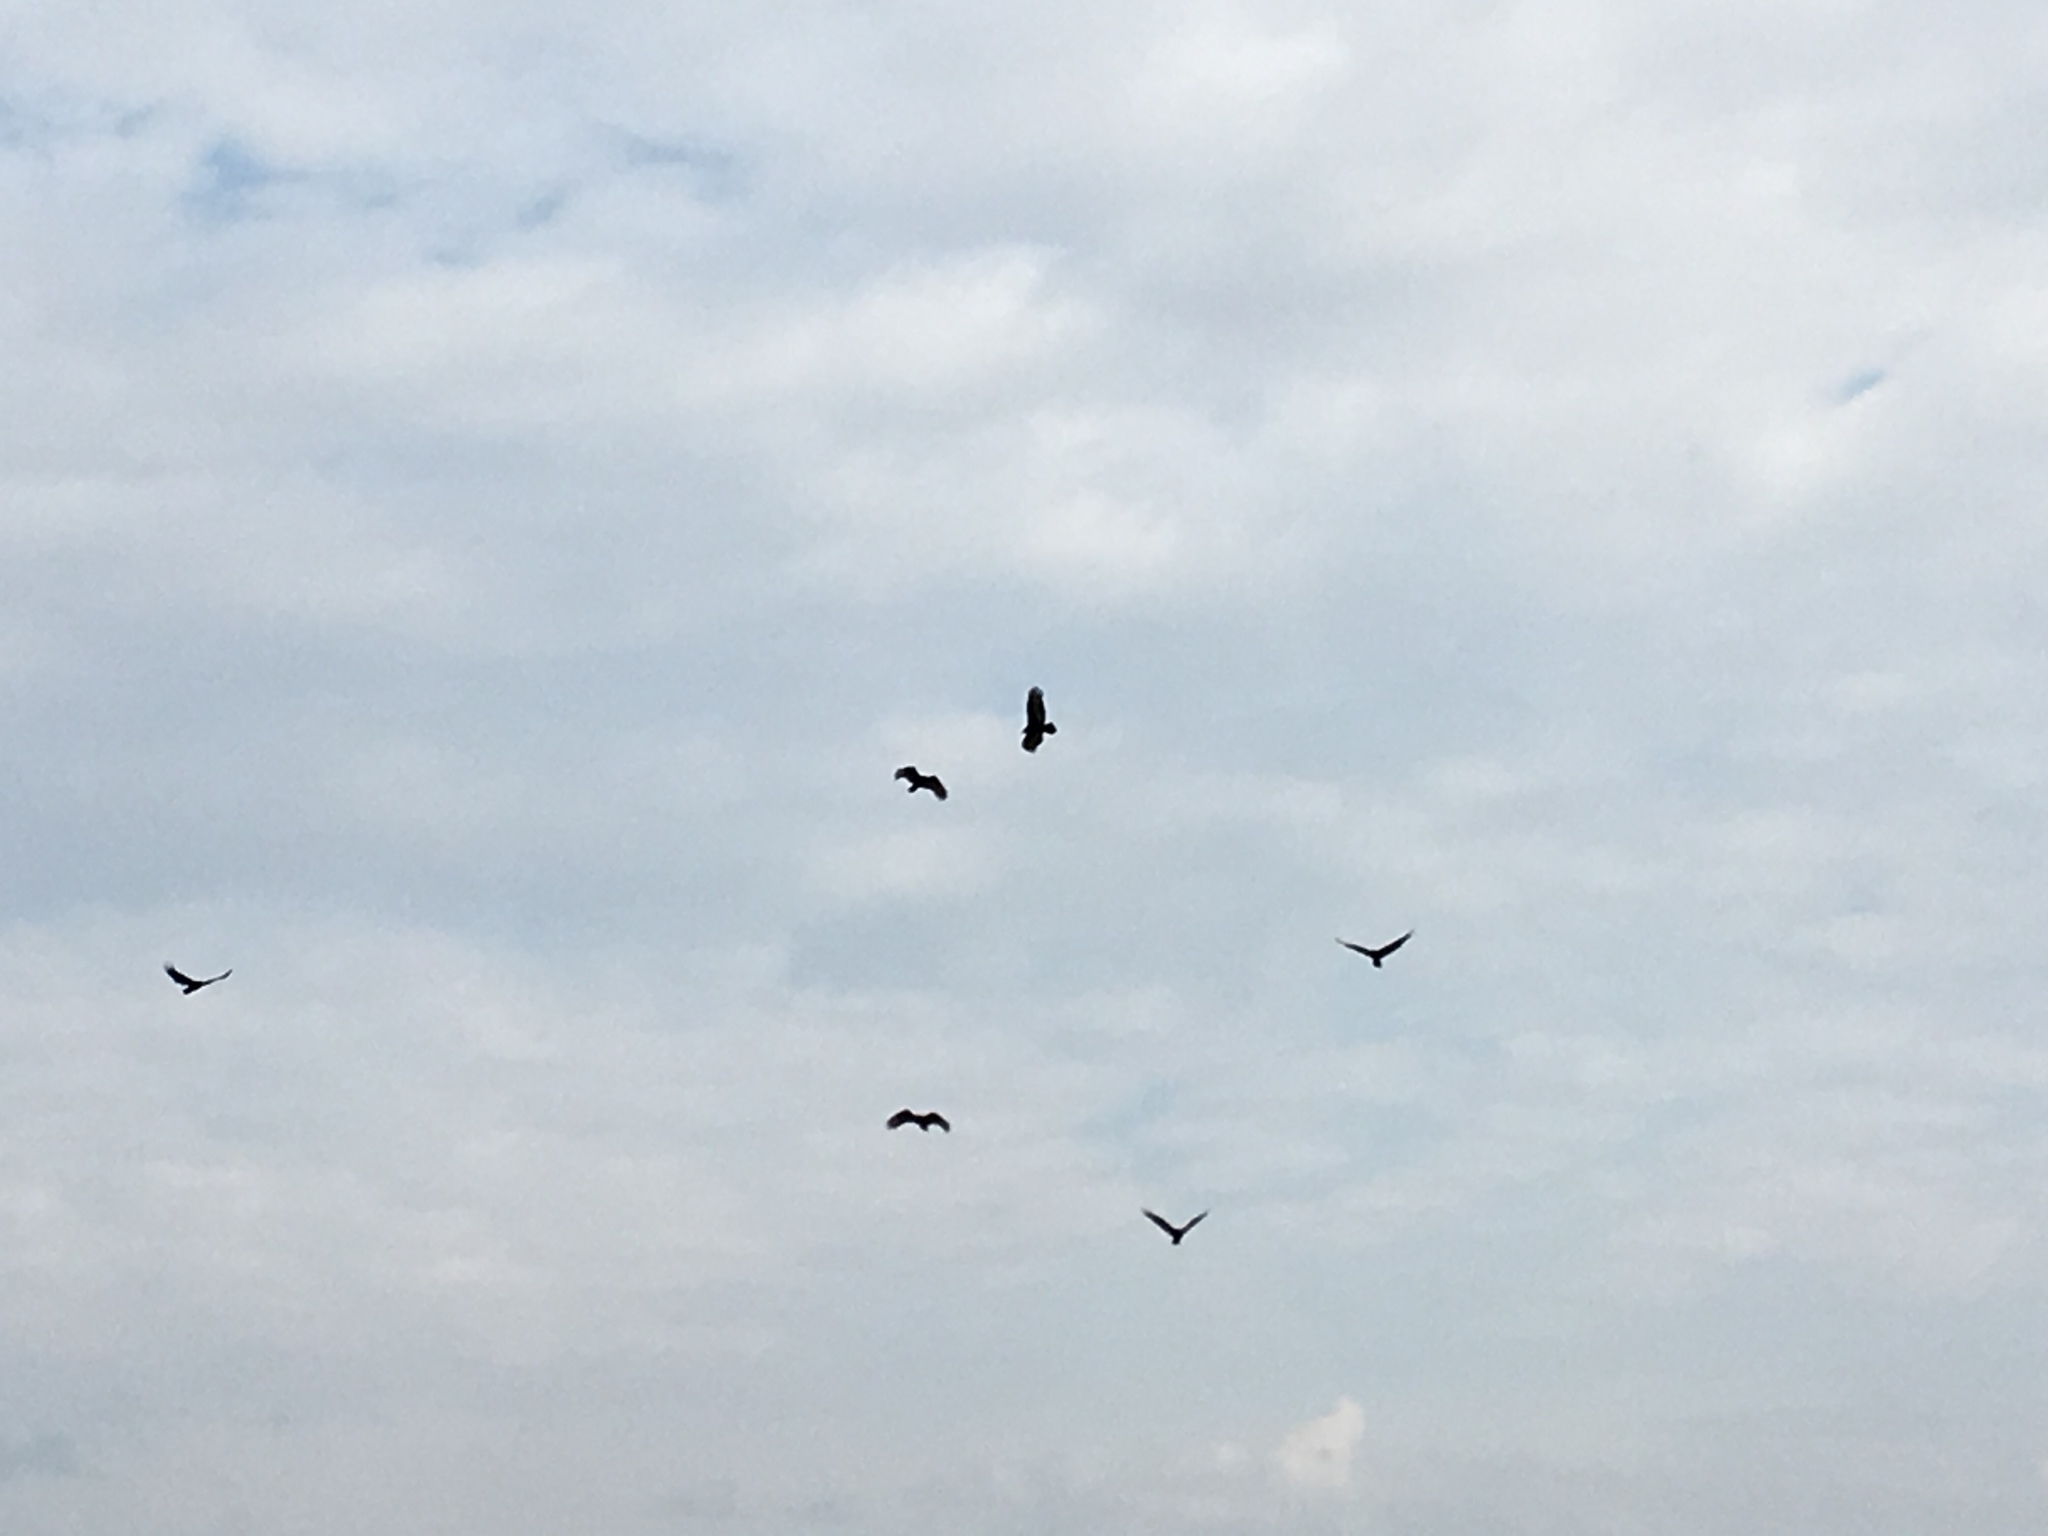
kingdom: Animalia
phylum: Chordata
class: Aves
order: Accipitriformes
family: Cathartidae
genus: Cathartes
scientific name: Cathartes aura
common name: Turkey vulture
